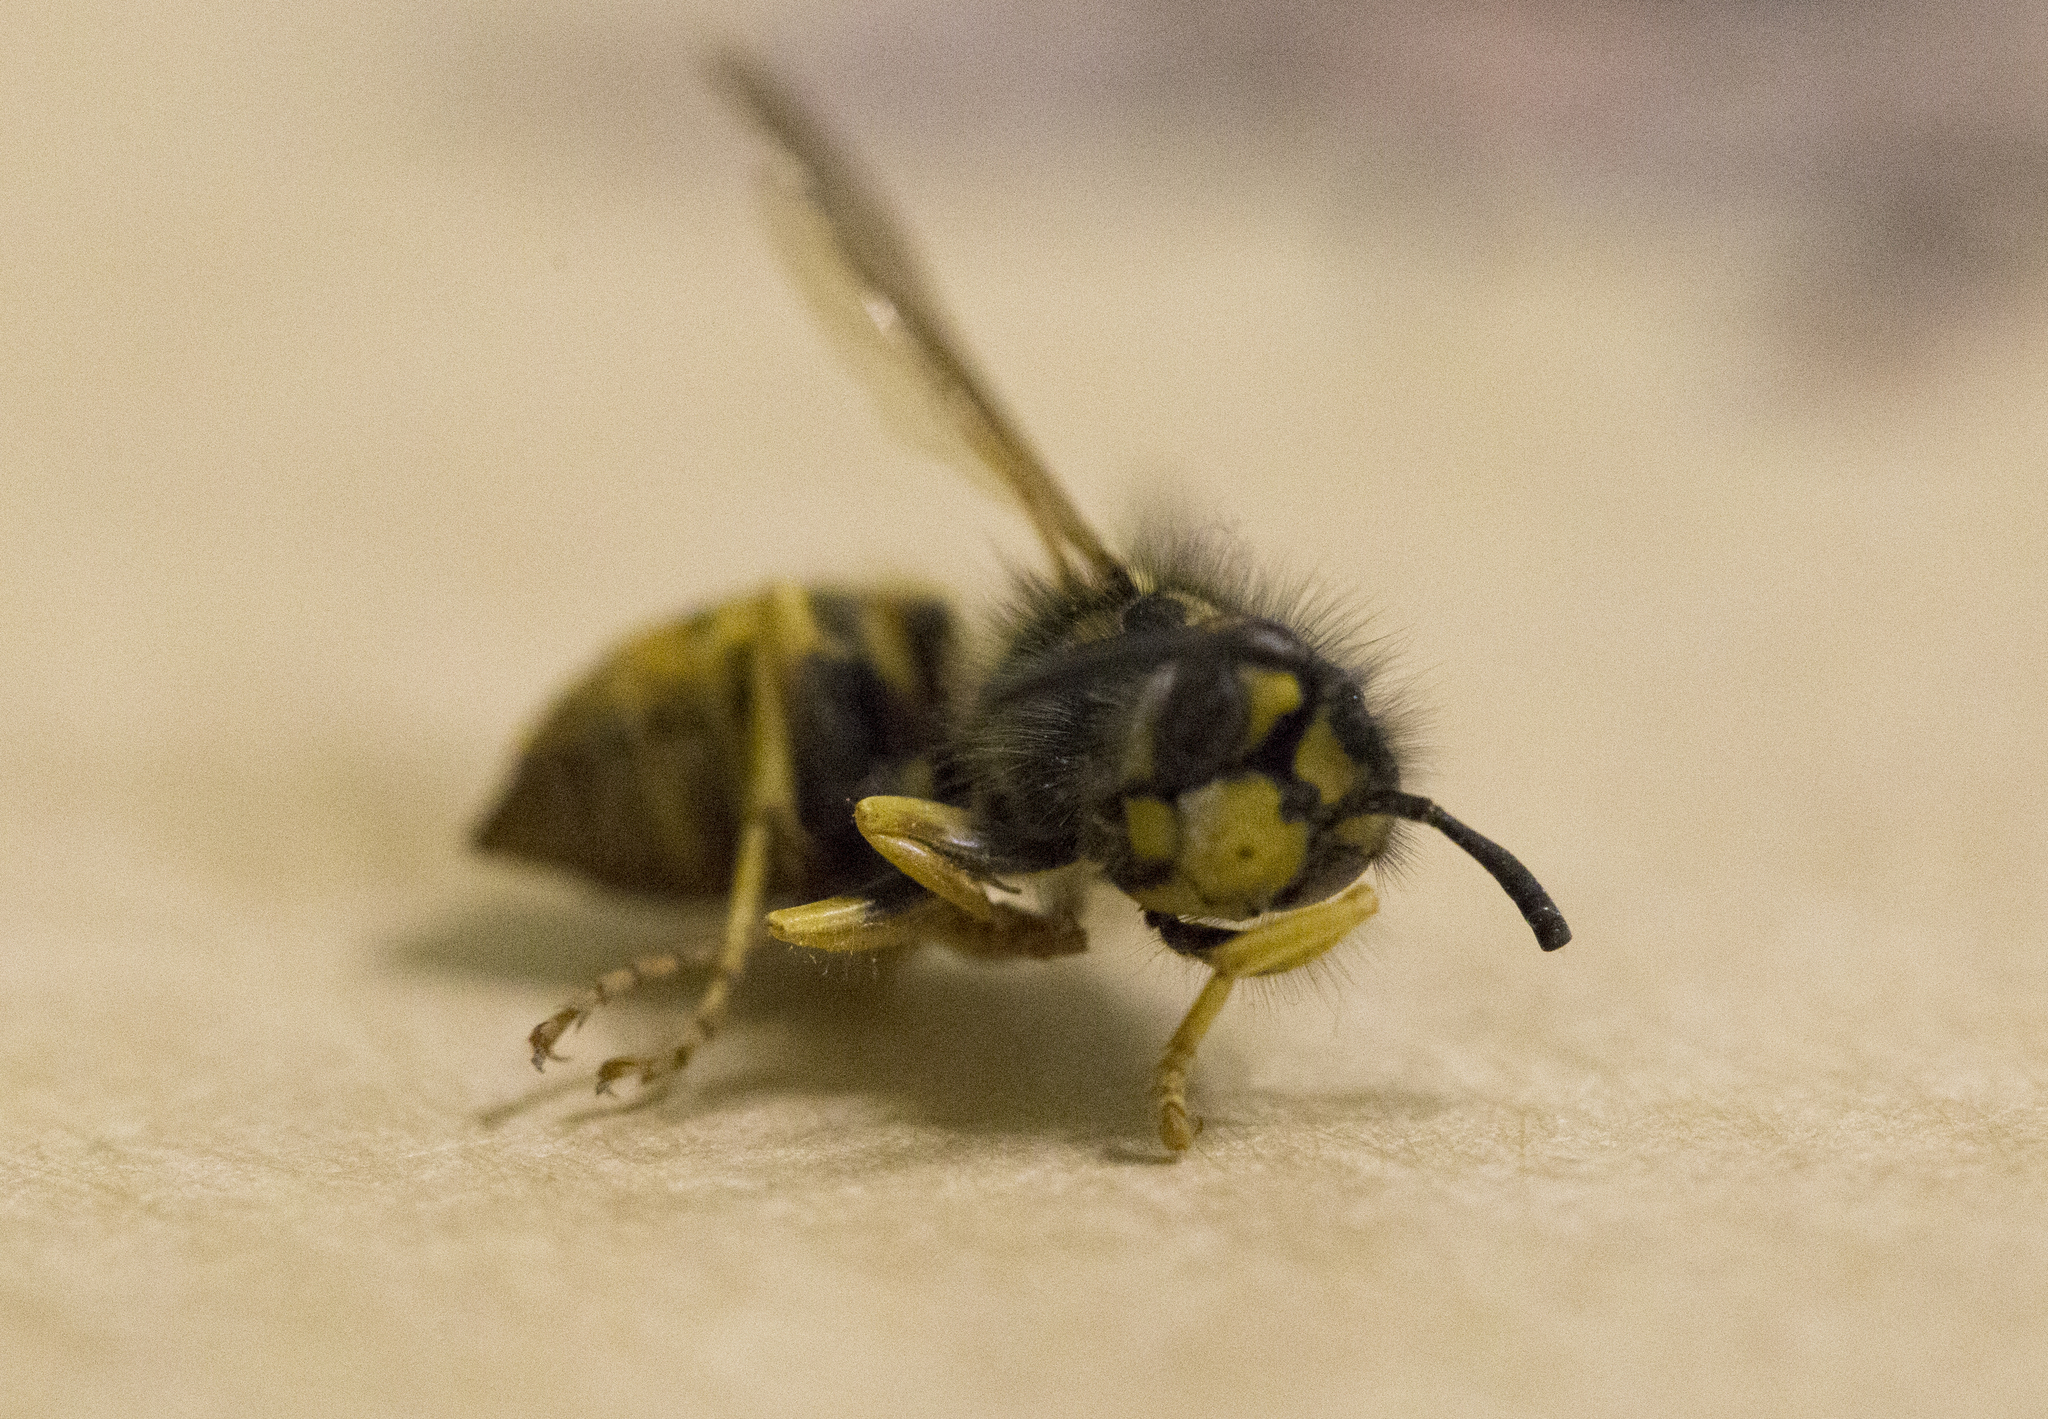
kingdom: Animalia
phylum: Arthropoda
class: Insecta
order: Hymenoptera
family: Vespidae
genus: Vespula
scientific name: Vespula germanica
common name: German wasp
